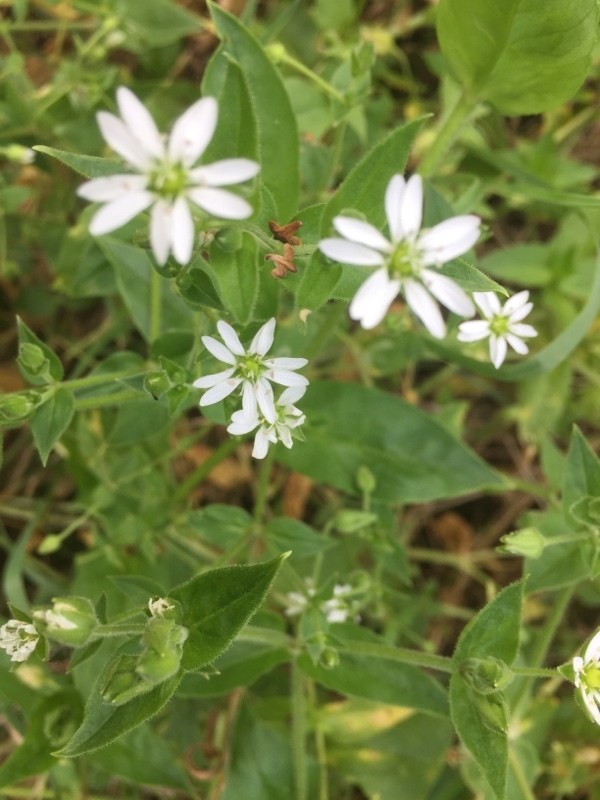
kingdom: Plantae
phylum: Tracheophyta
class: Magnoliopsida
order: Caryophyllales
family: Caryophyllaceae
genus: Stellaria
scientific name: Stellaria aquatica
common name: Water chickweed
